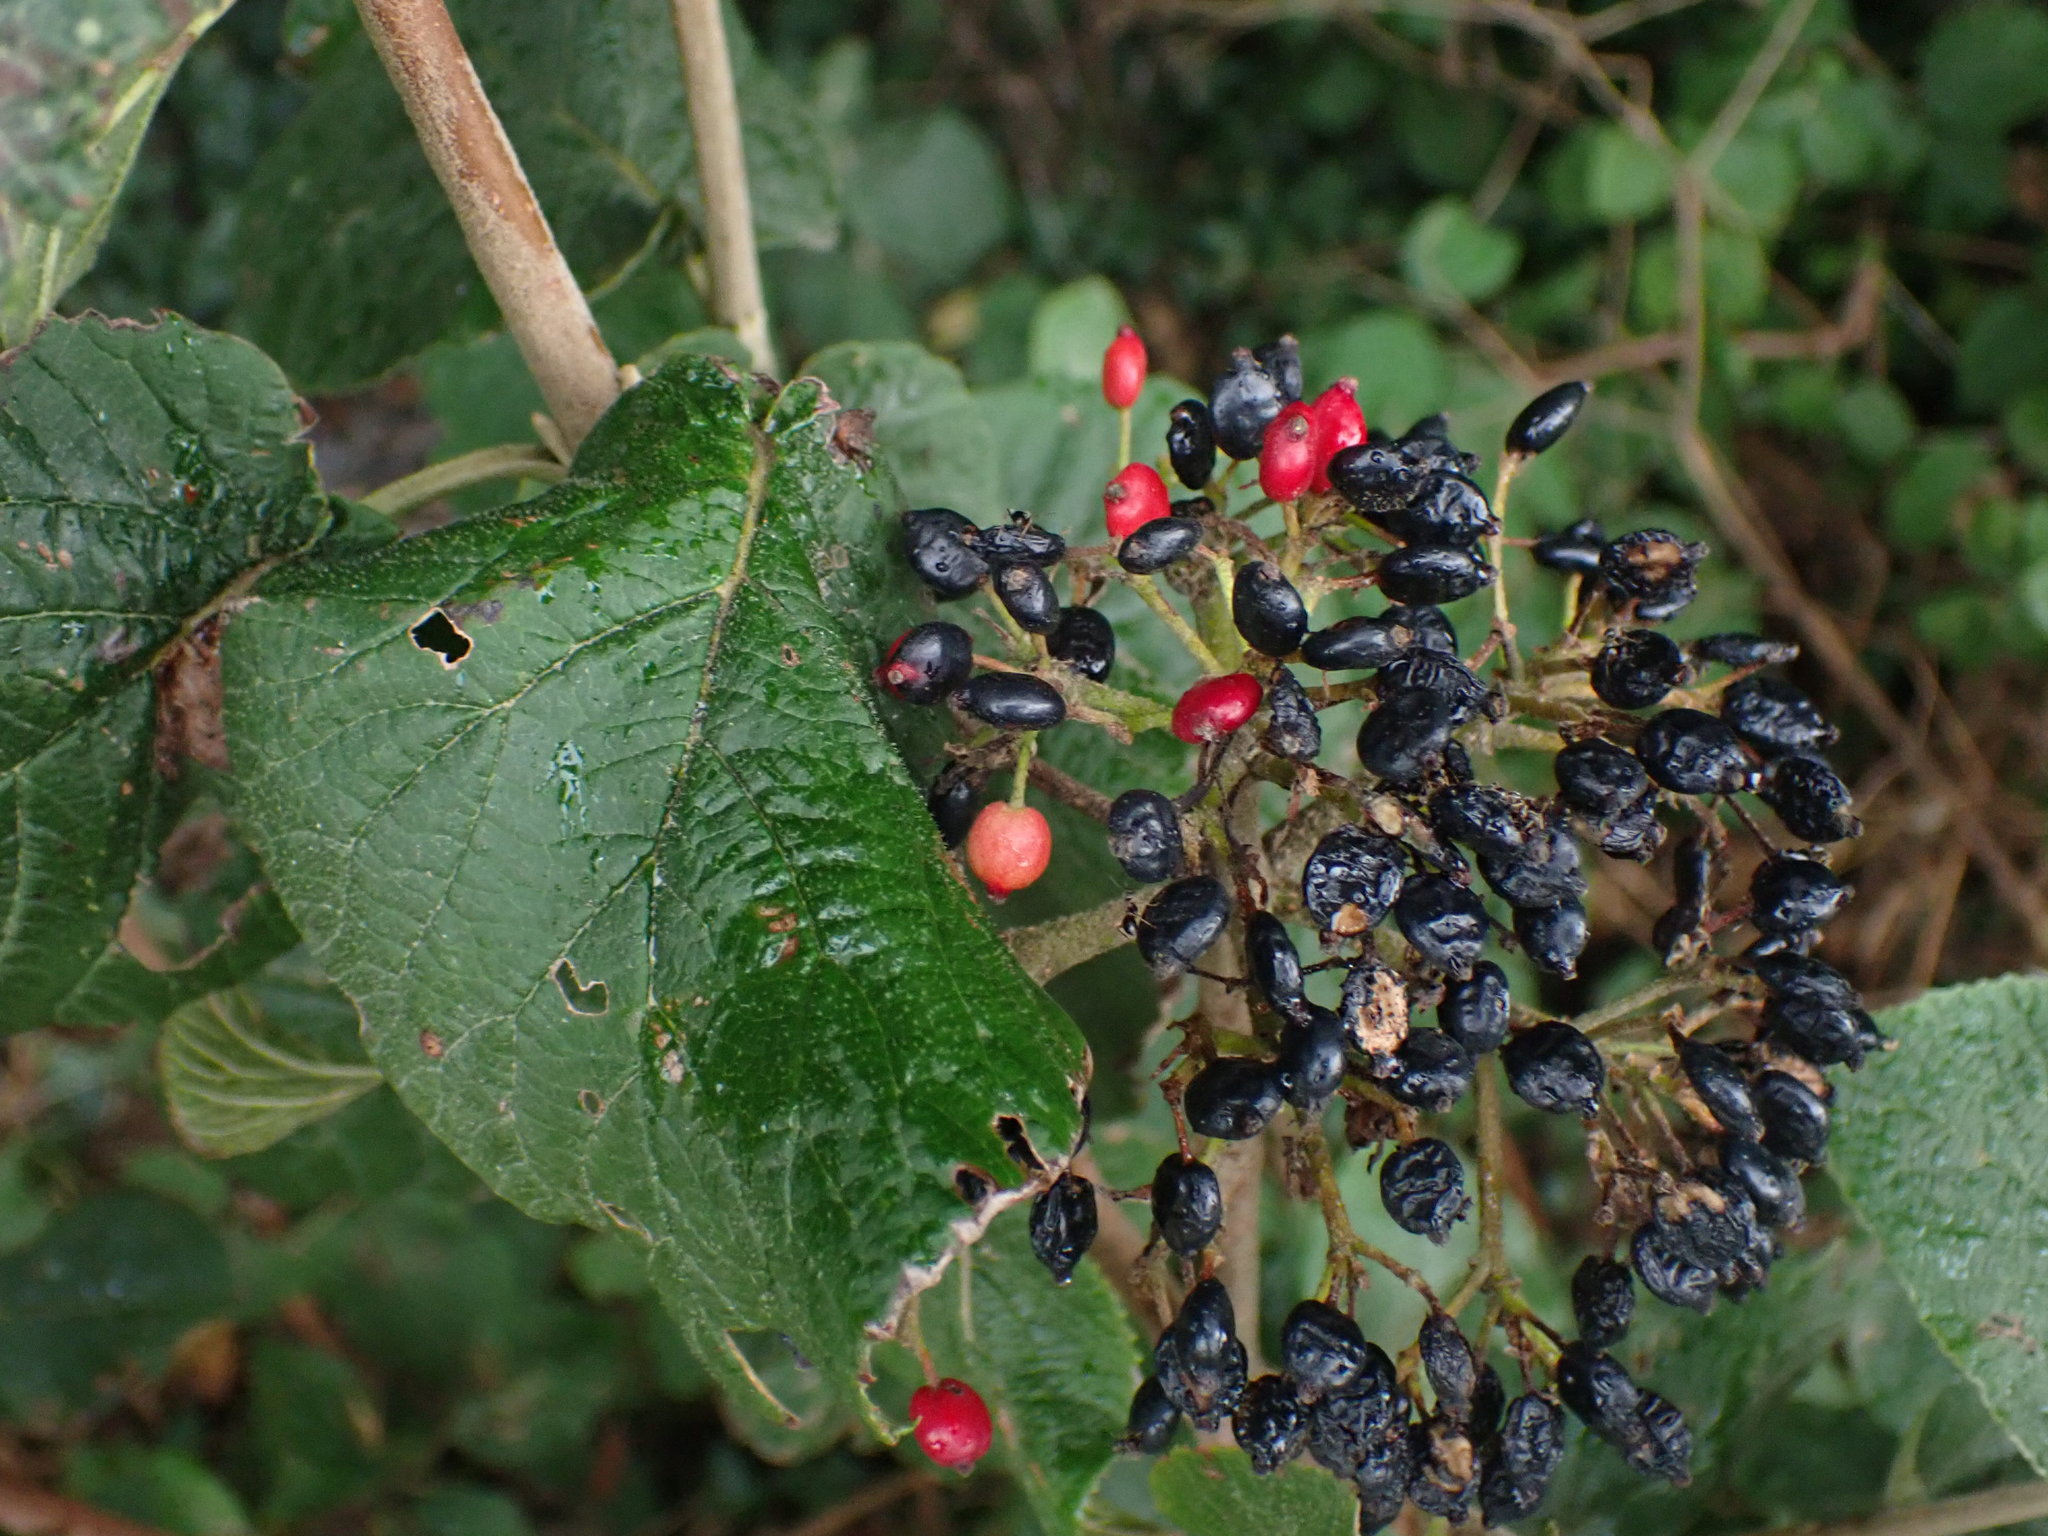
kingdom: Plantae
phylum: Tracheophyta
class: Magnoliopsida
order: Dipsacales
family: Viburnaceae
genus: Viburnum
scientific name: Viburnum lantana
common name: Wayfaring tree
